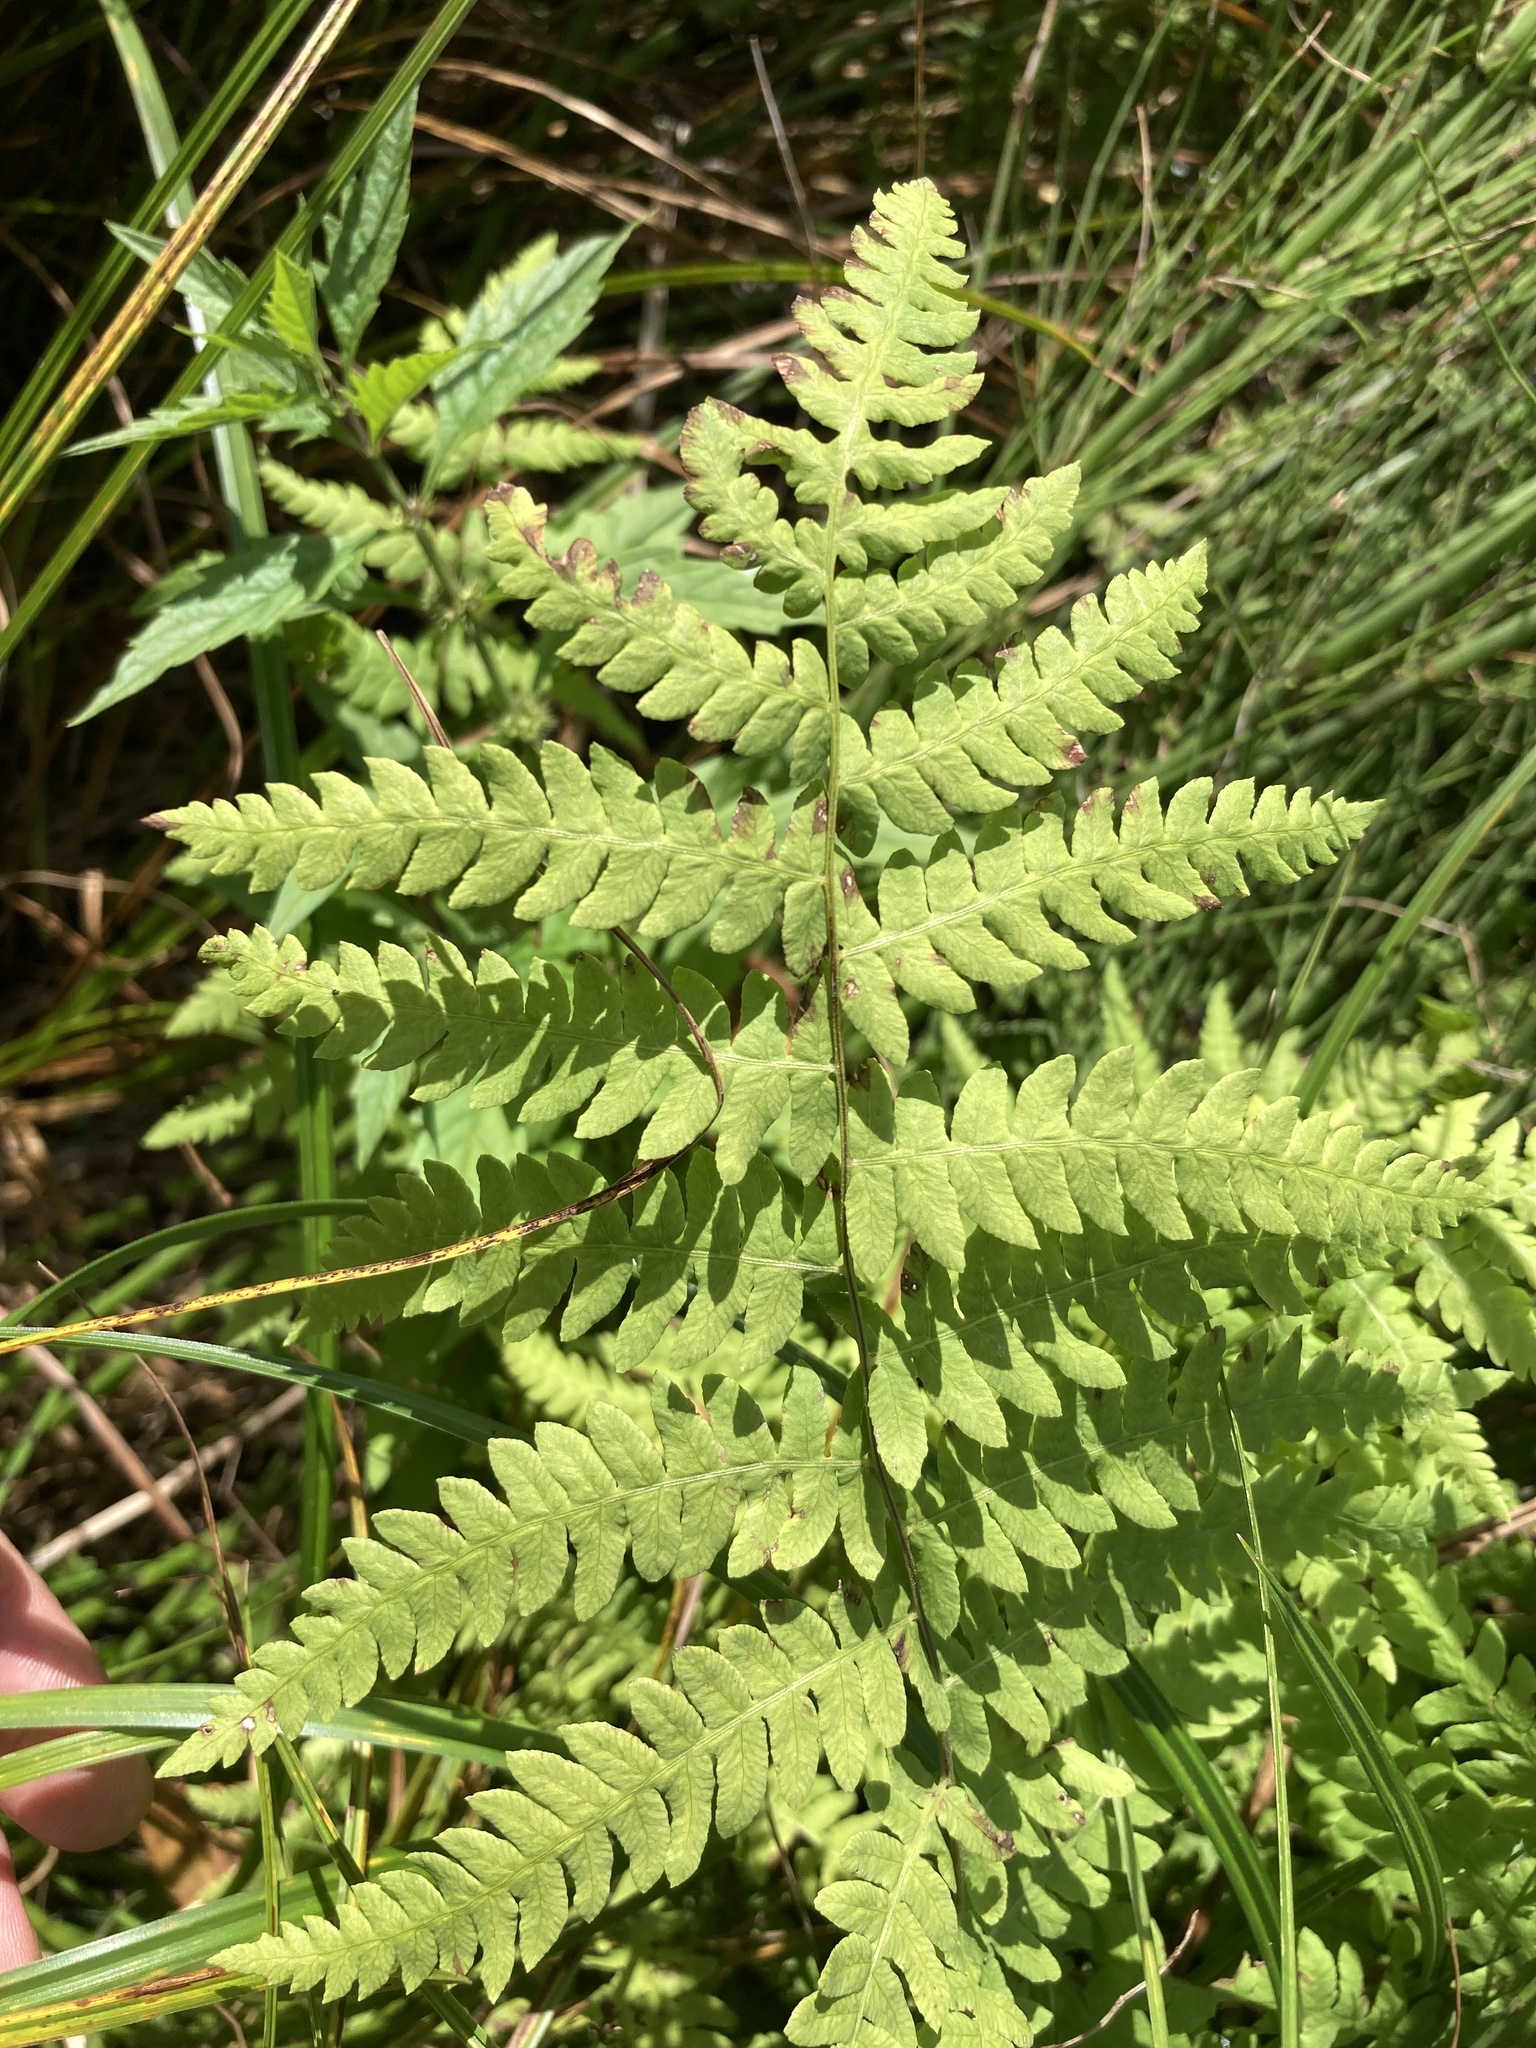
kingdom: Plantae
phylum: Tracheophyta
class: Polypodiopsida
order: Polypodiales
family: Thelypteridaceae
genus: Thelypteris
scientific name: Thelypteris palustris
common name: Marsh fern
